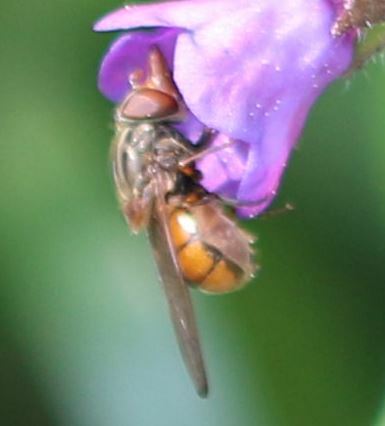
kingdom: Animalia
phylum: Arthropoda
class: Insecta
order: Diptera
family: Syrphidae
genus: Rhingia
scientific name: Rhingia campestris
